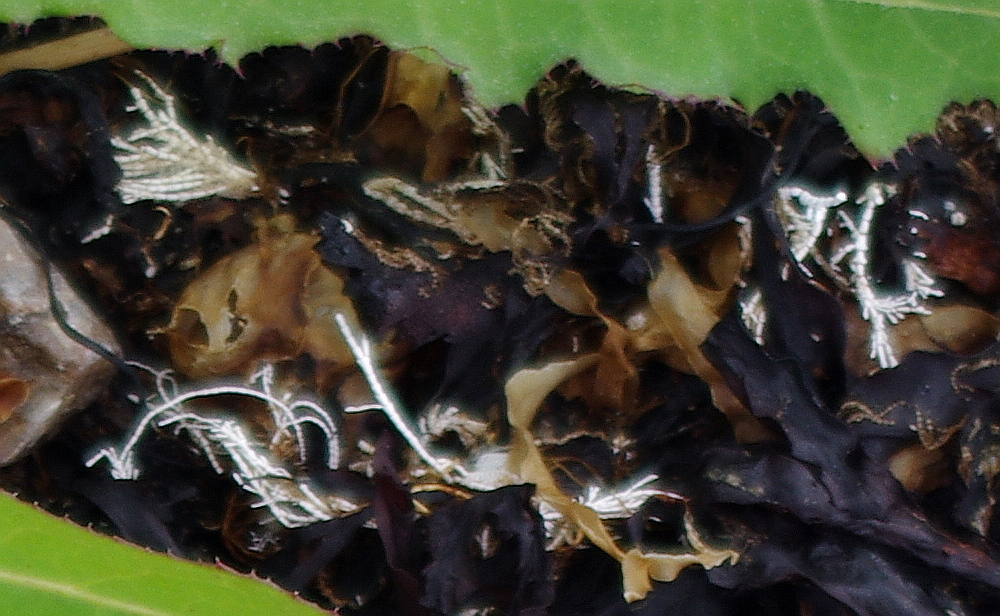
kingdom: Plantae
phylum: Rhodophyta
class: Florideophyceae
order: Corallinales
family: Corallinaceae
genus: Corallina
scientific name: Corallina officinalis
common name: Coral weed
